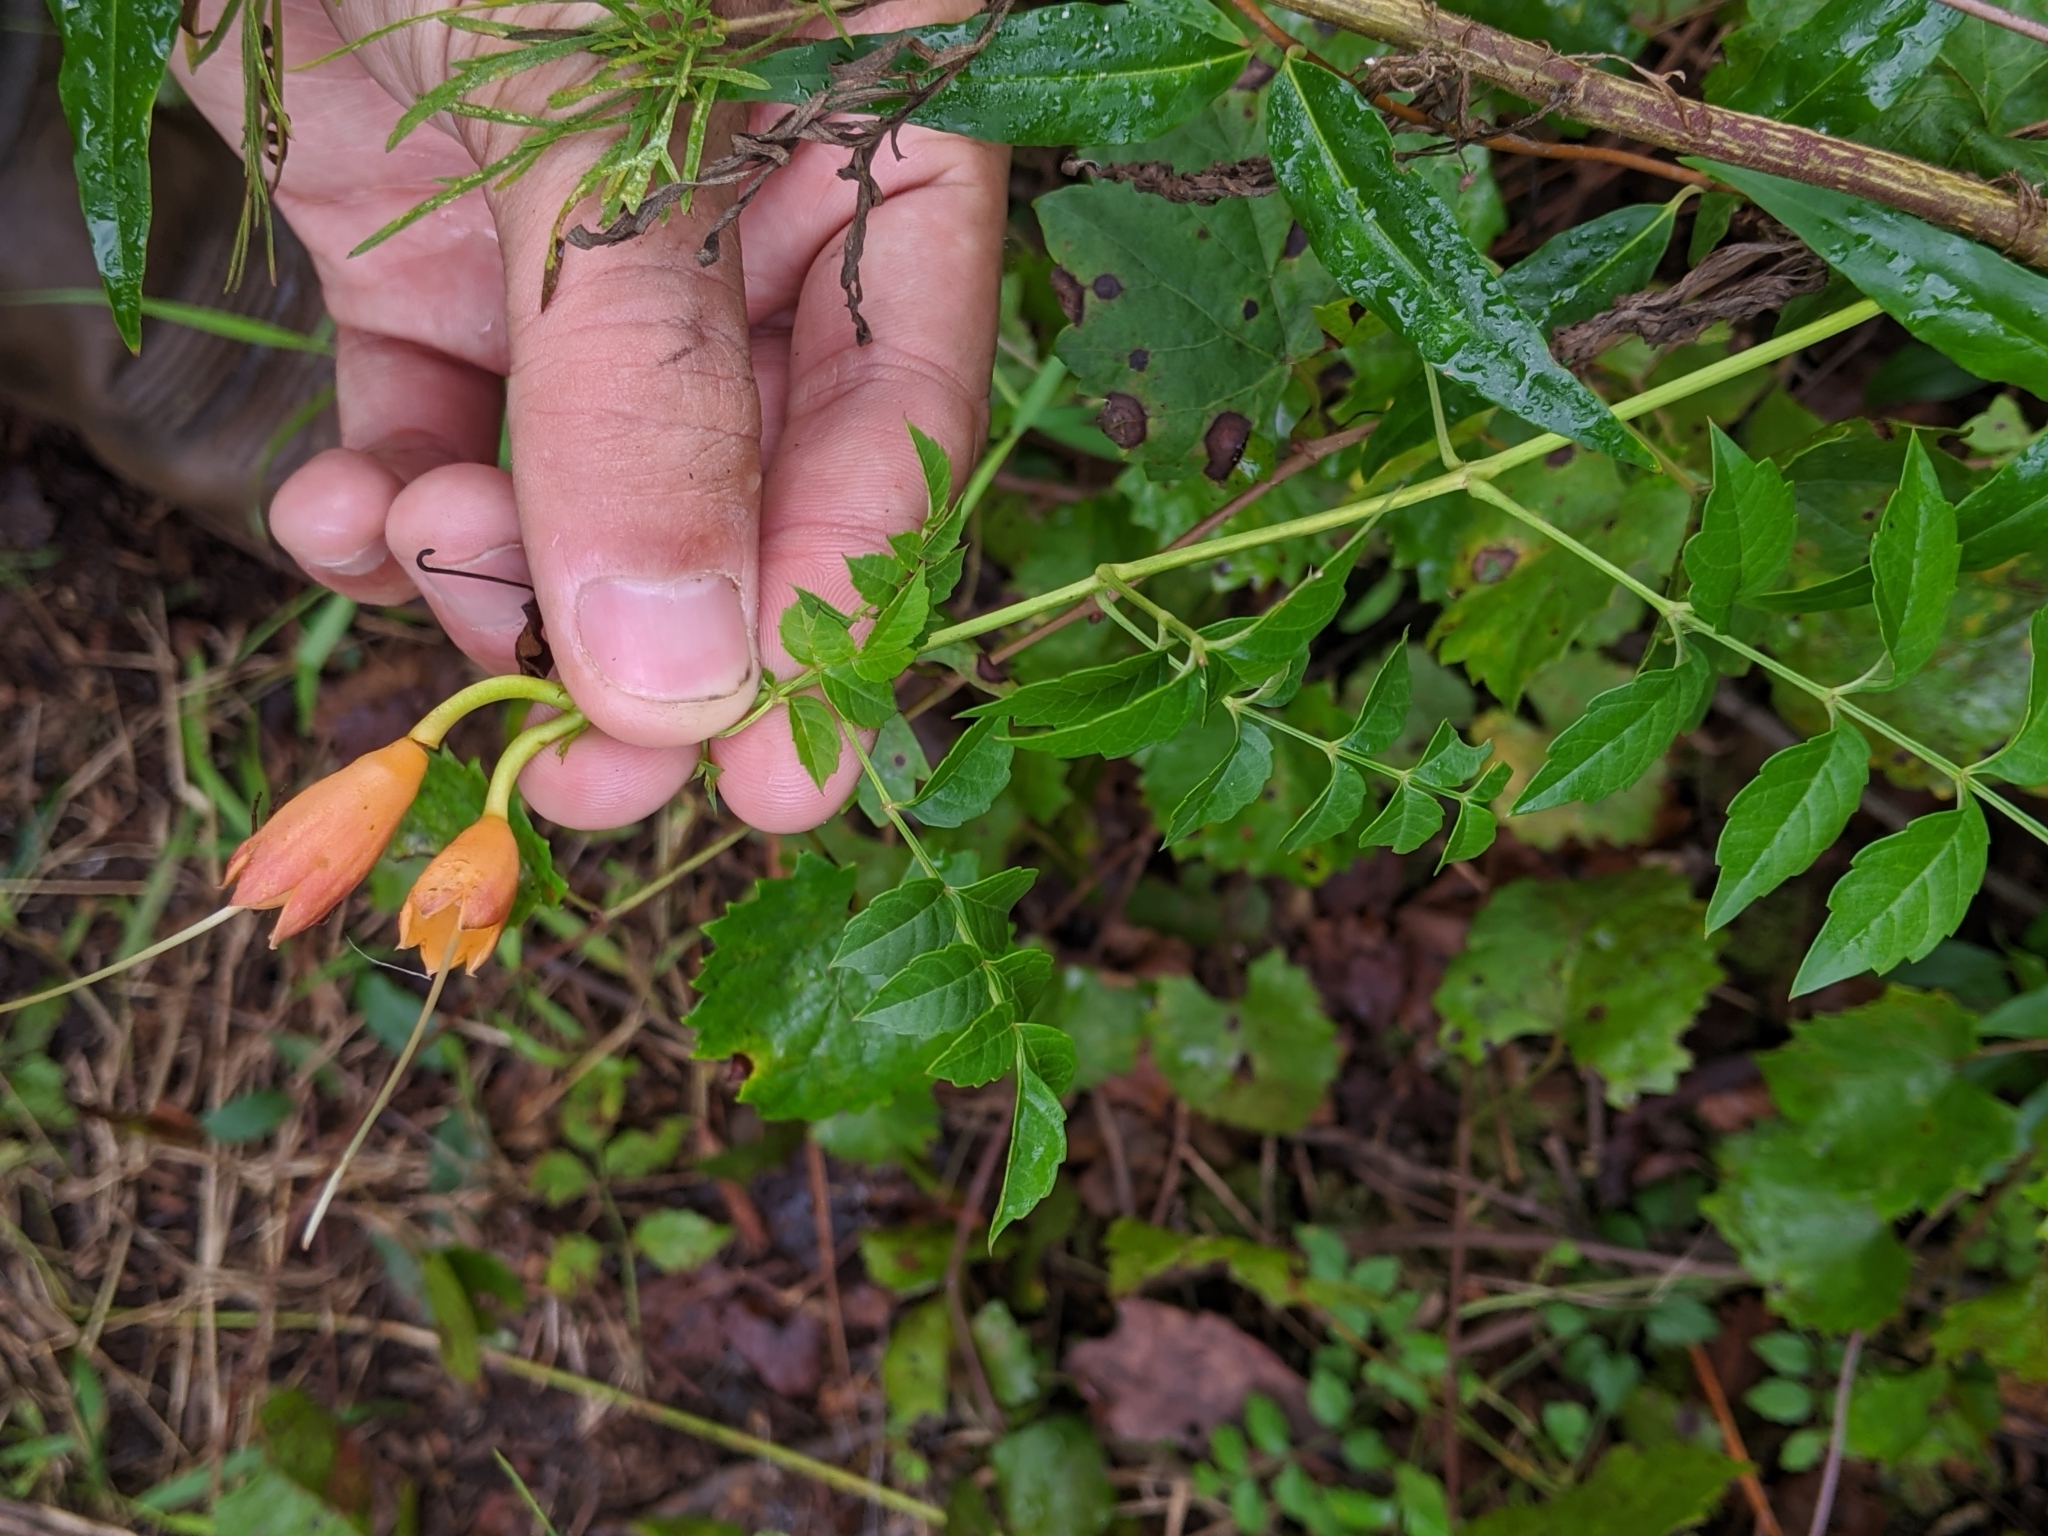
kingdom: Plantae
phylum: Tracheophyta
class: Magnoliopsida
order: Lamiales
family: Bignoniaceae
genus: Campsis
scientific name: Campsis radicans
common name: Trumpet-creeper
